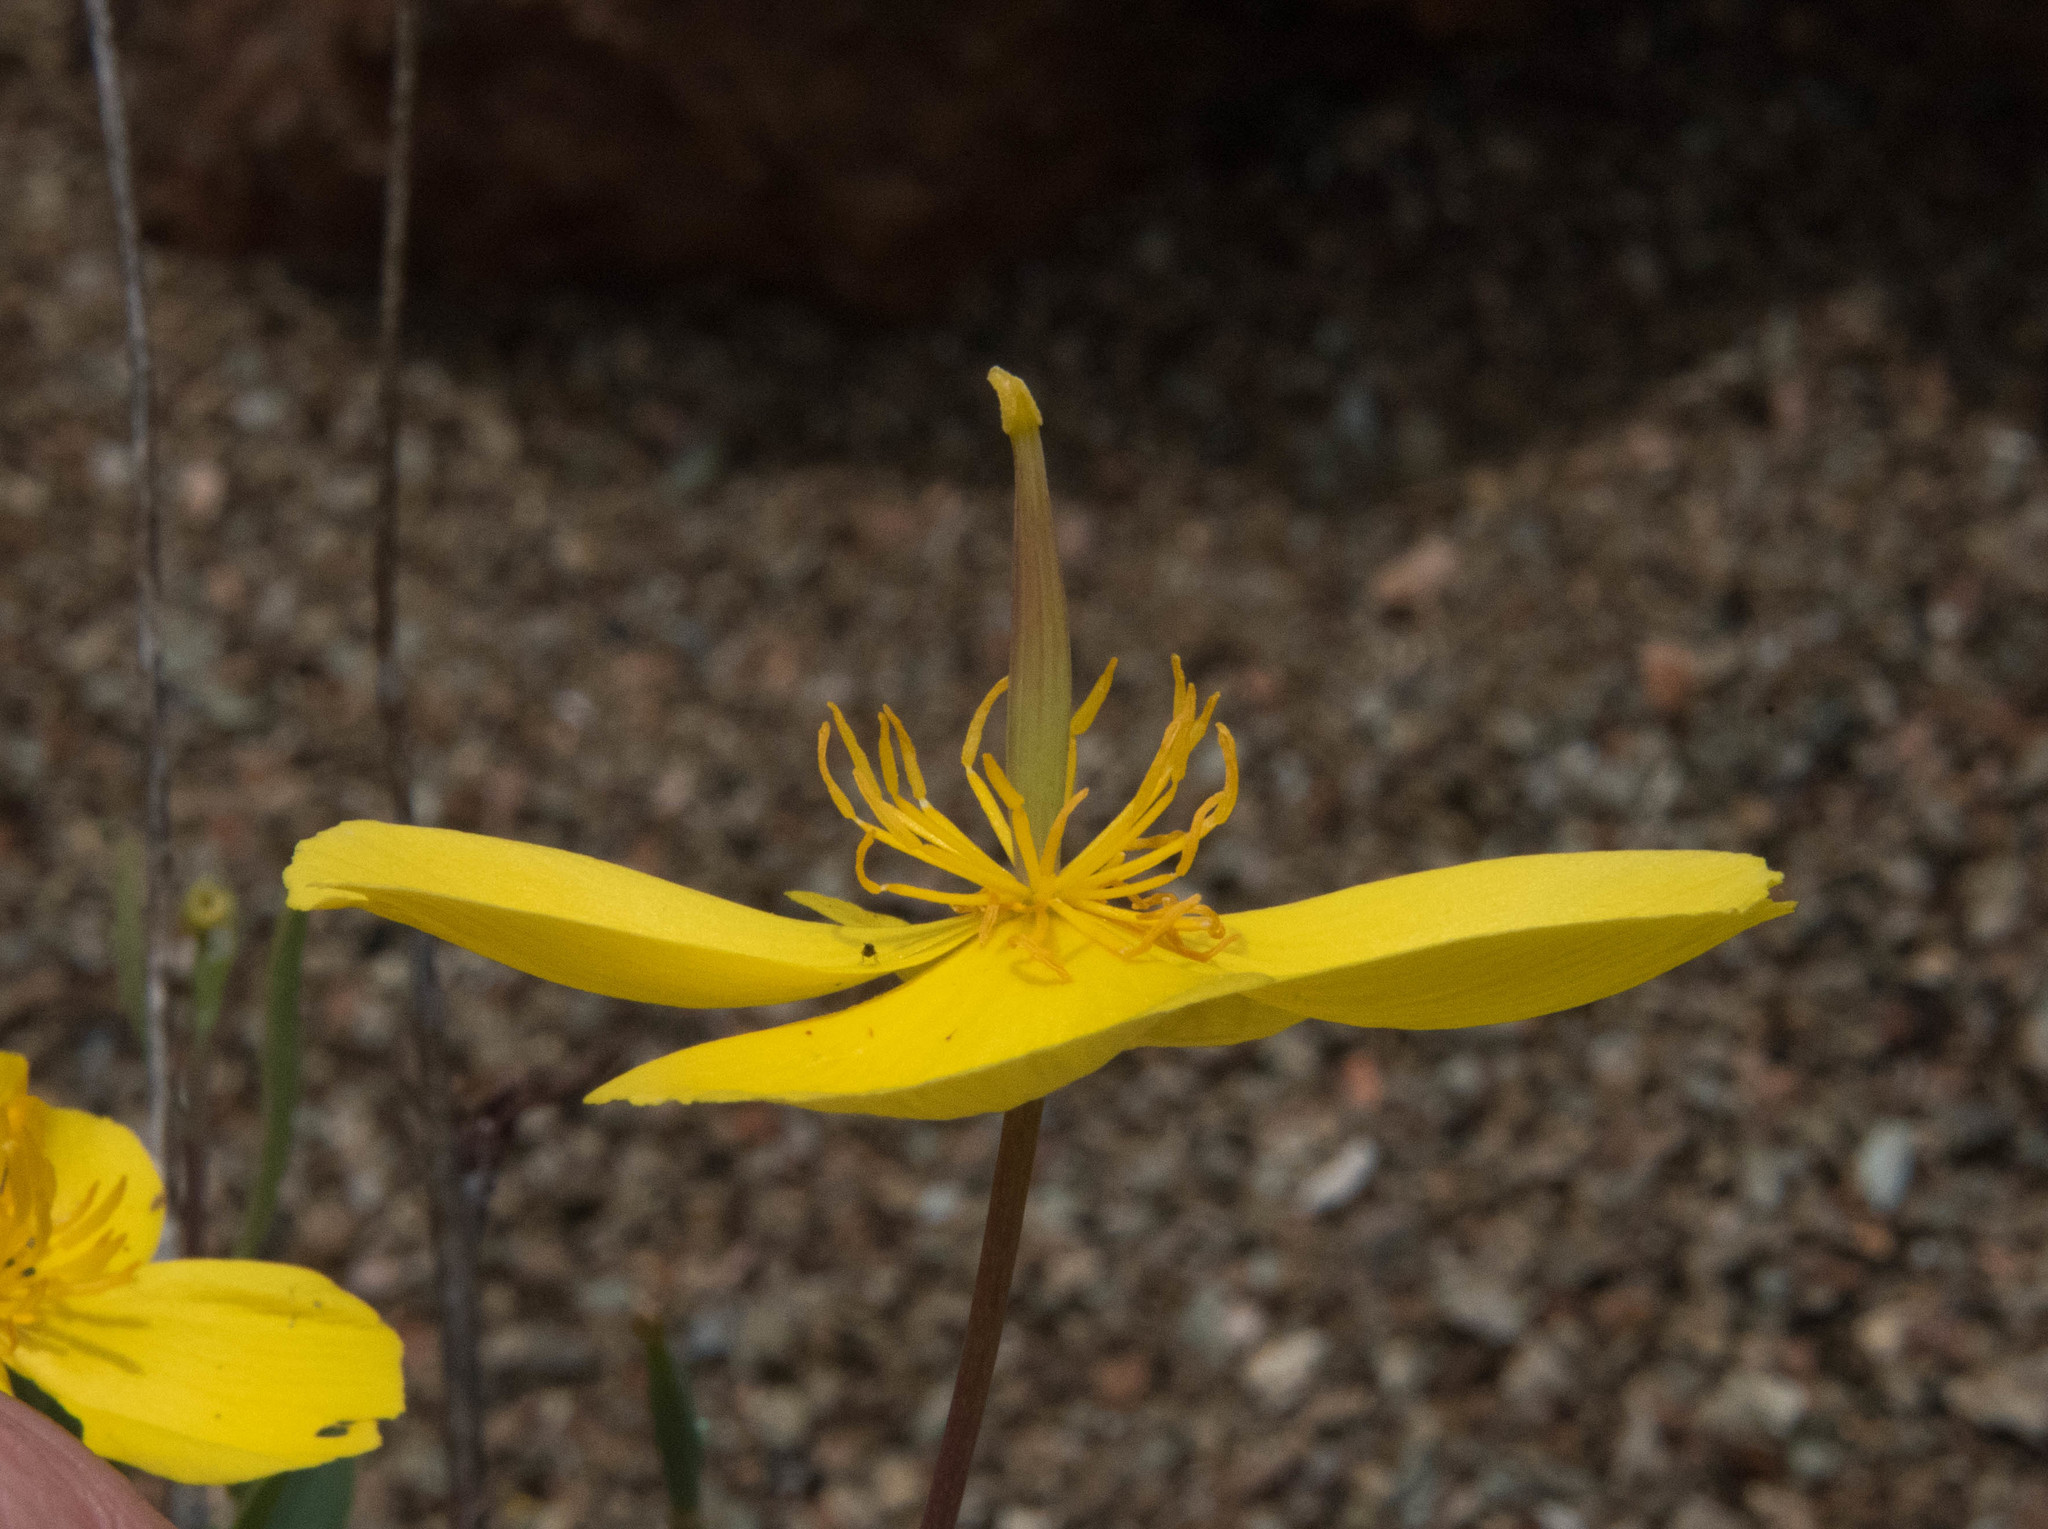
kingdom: Plantae
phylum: Tracheophyta
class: Magnoliopsida
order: Ranunculales
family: Papaveraceae
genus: Dendromecon
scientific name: Dendromecon rigida
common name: Tree poppy
